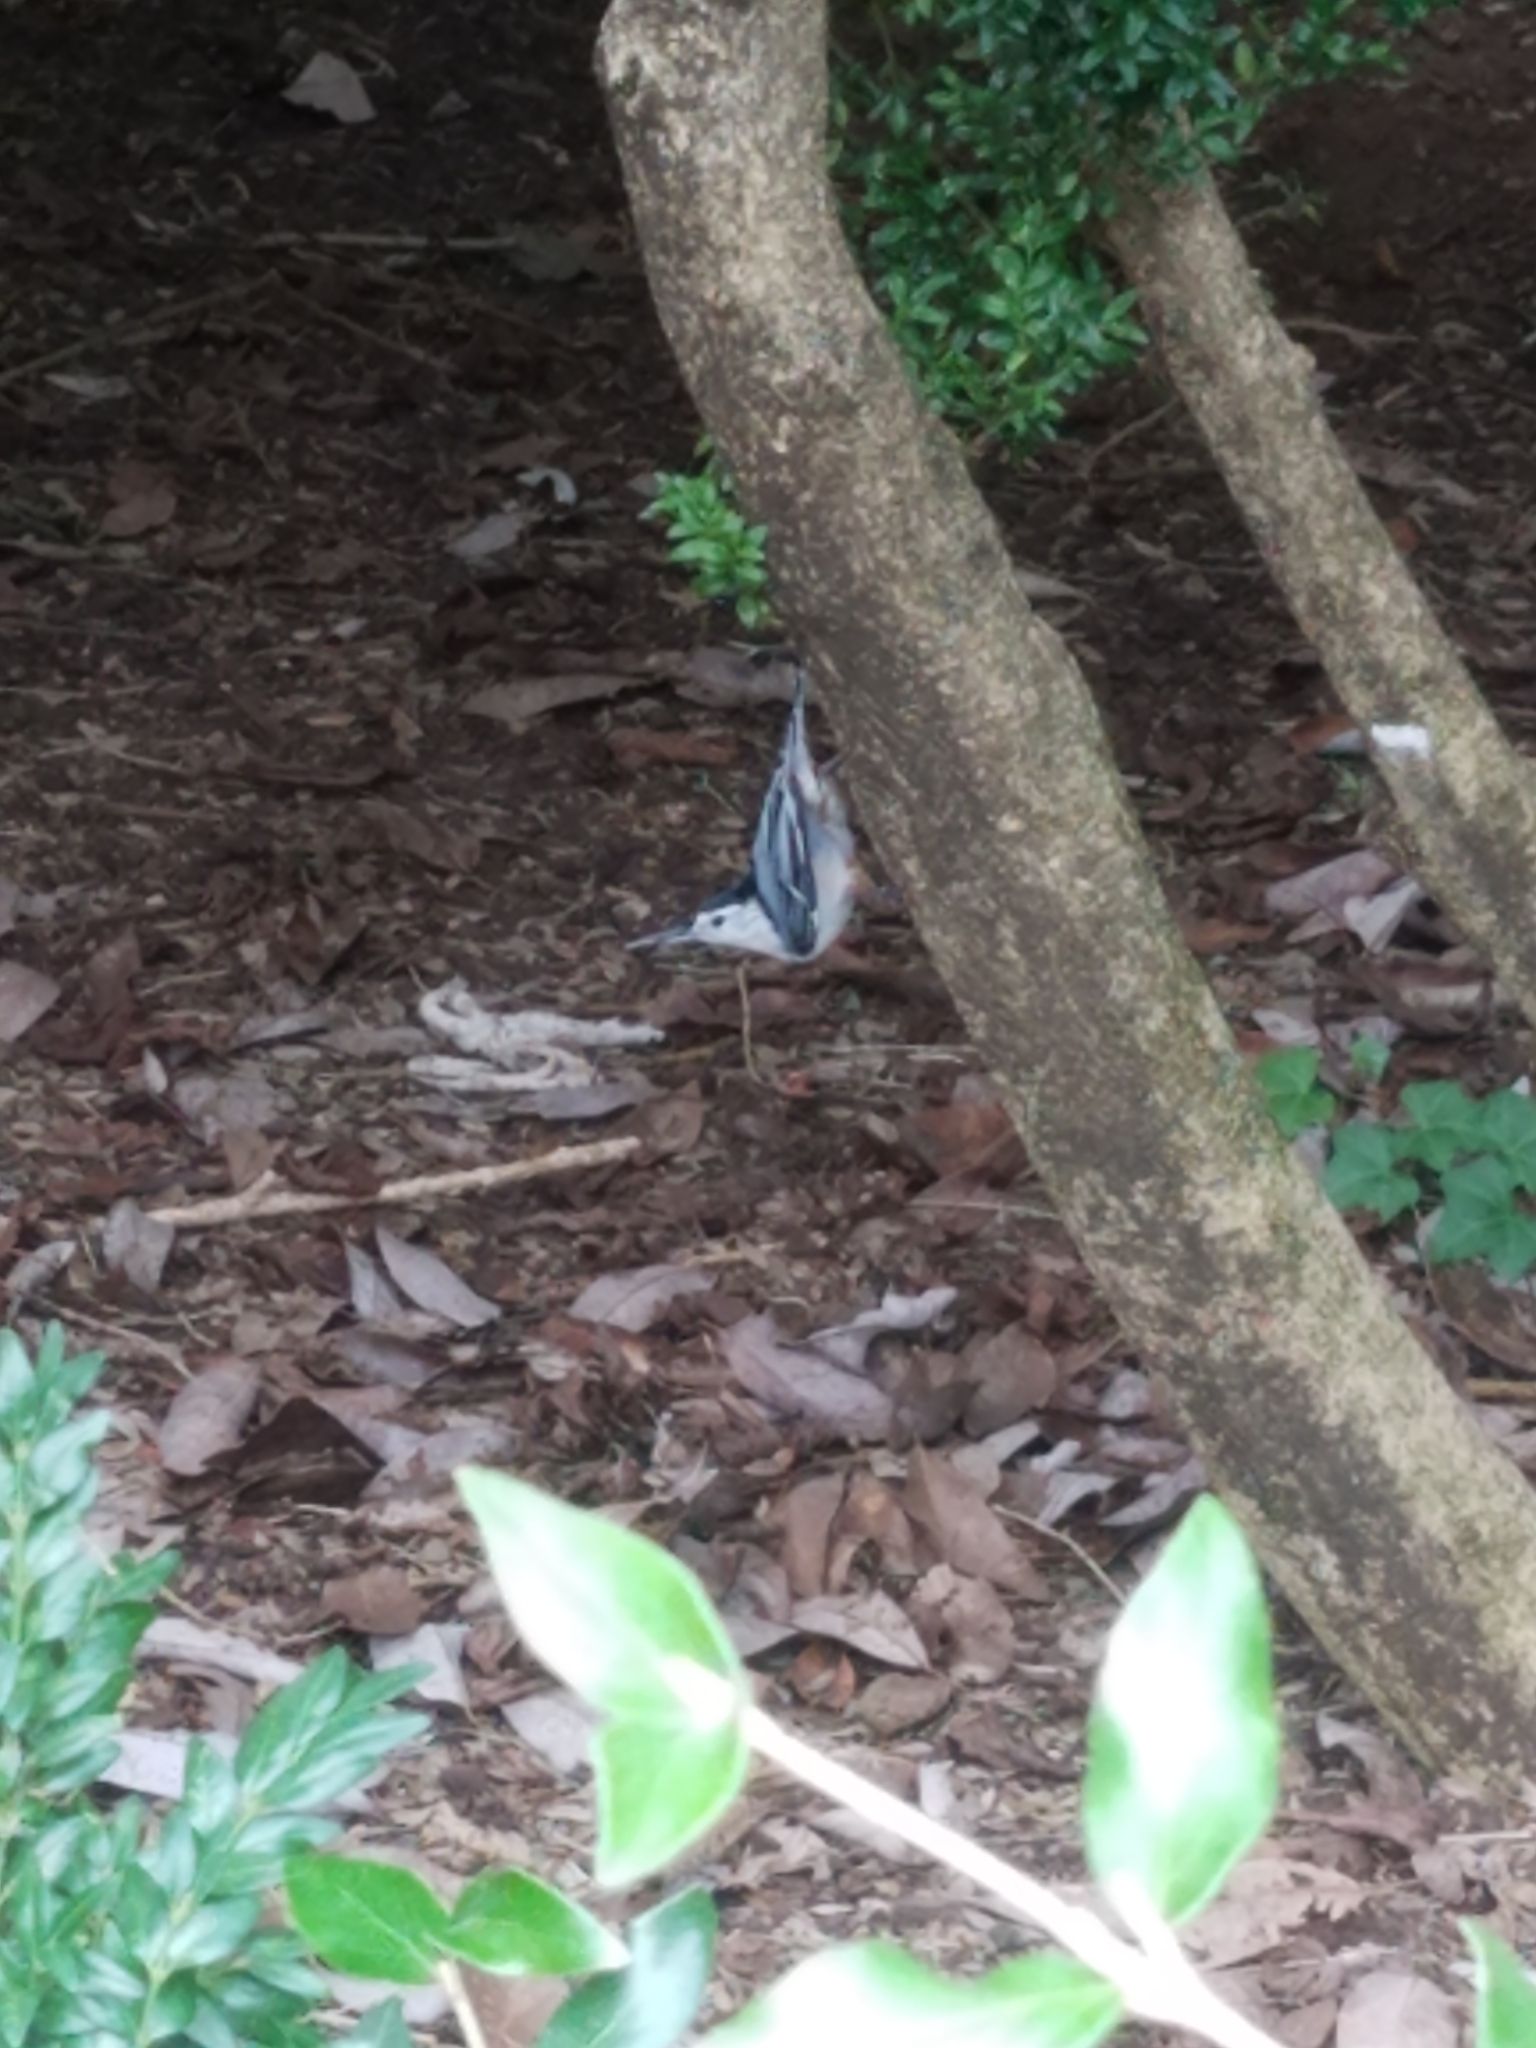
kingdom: Animalia
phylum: Chordata
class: Aves
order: Passeriformes
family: Sittidae
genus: Sitta
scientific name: Sitta carolinensis
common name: White-breasted nuthatch
